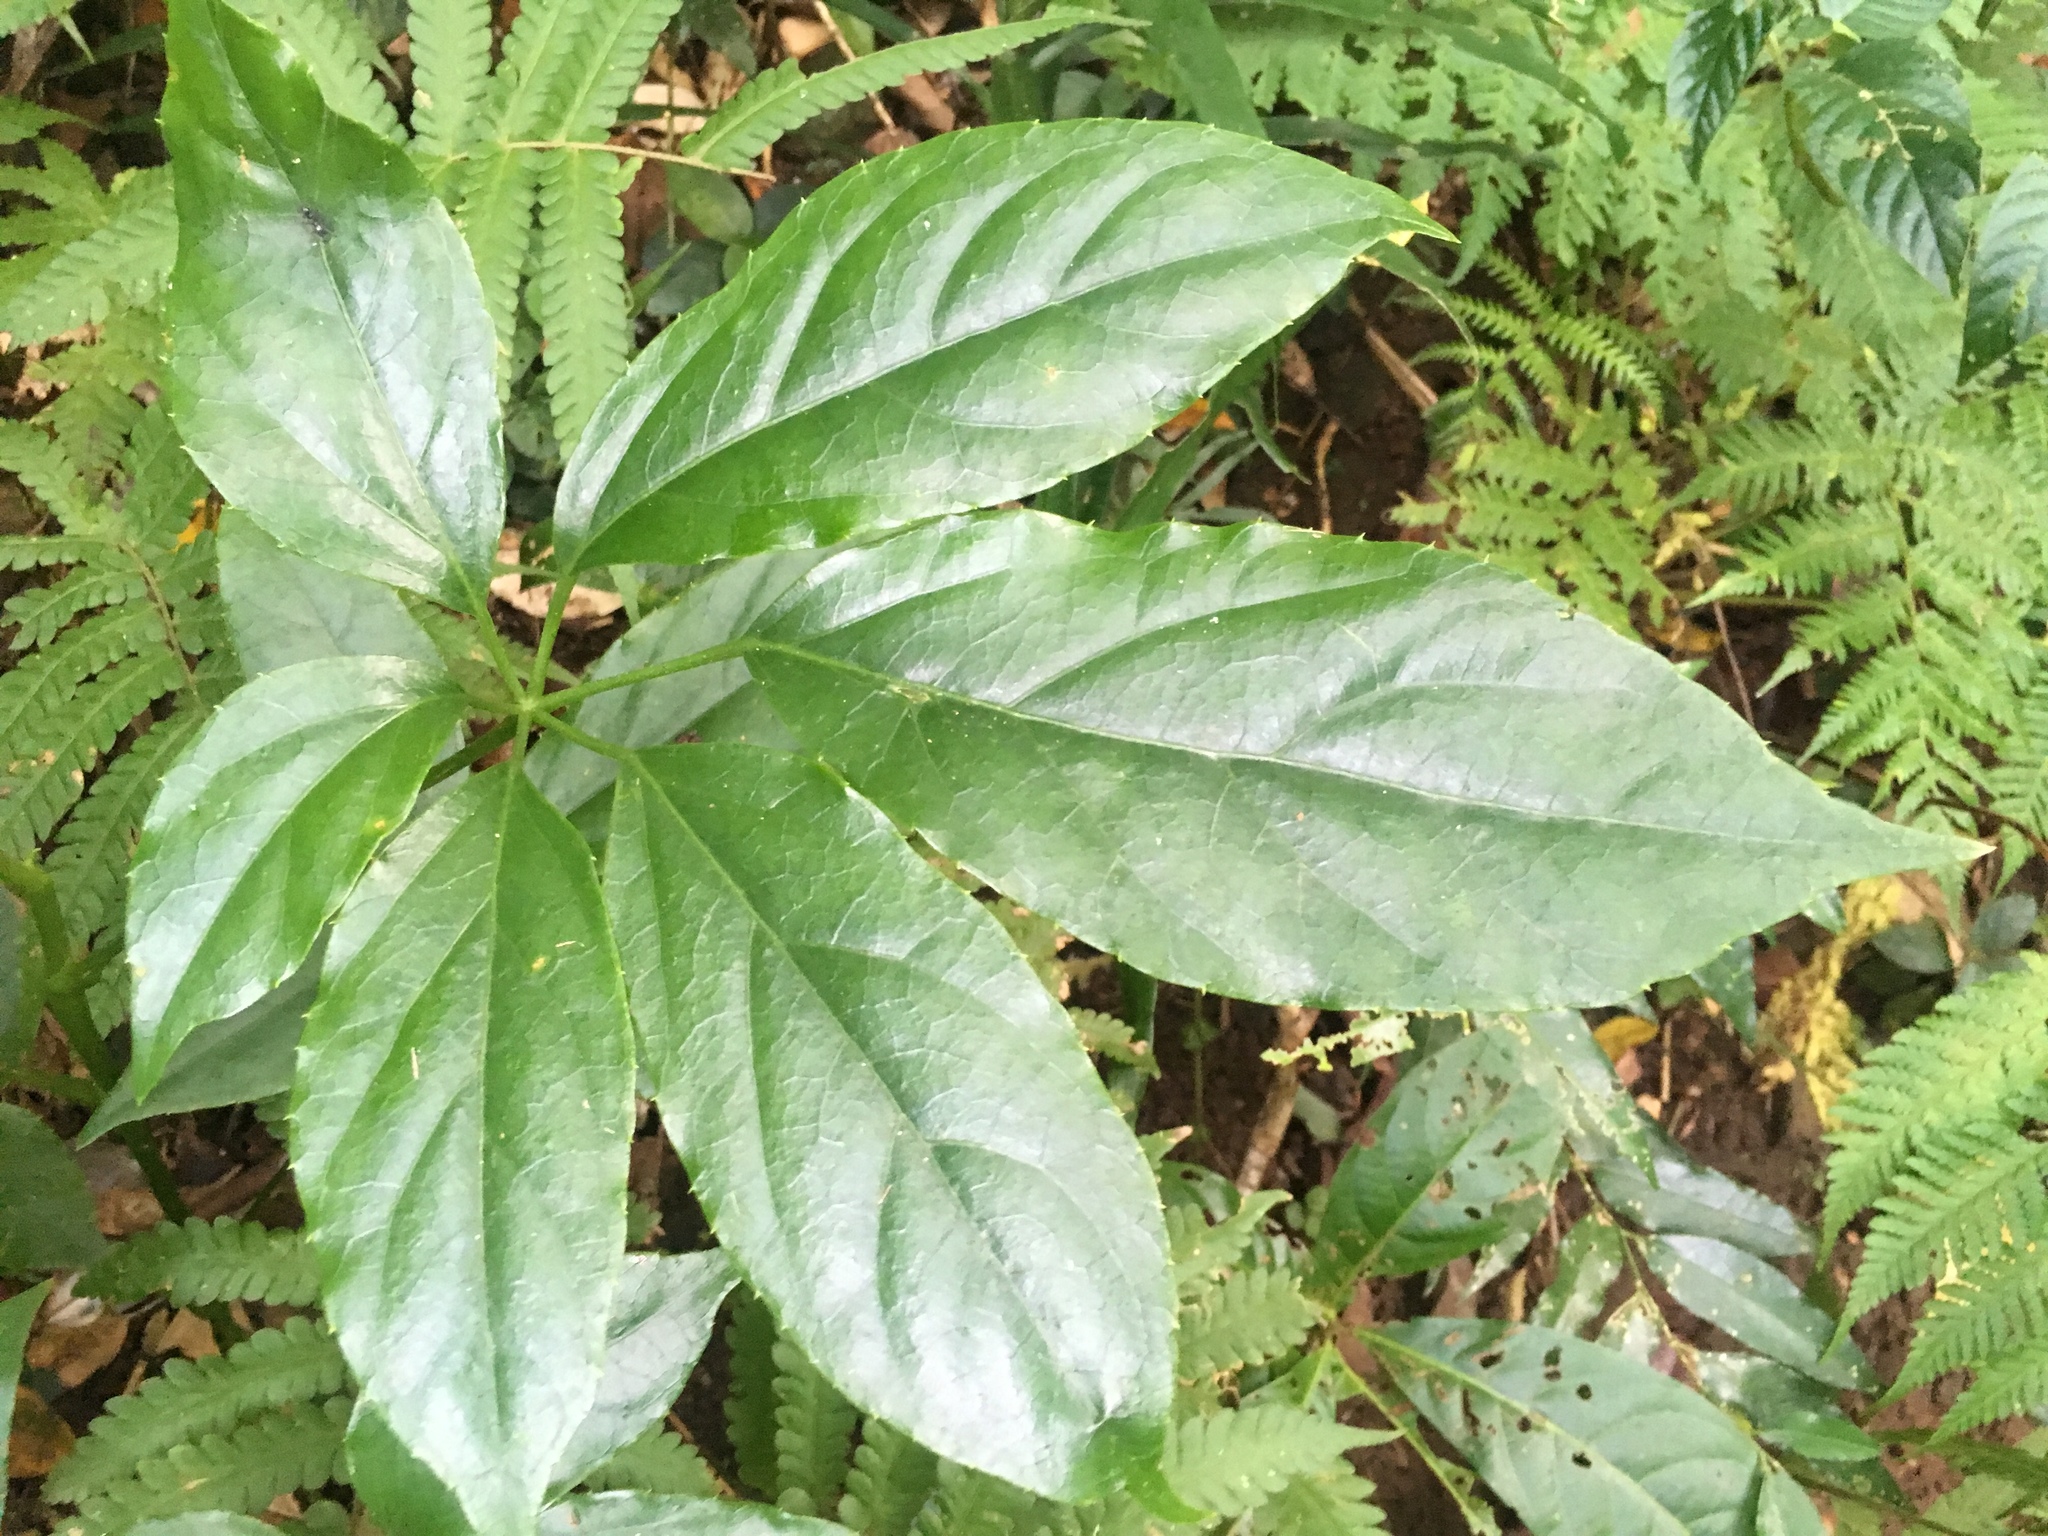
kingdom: Plantae
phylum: Tracheophyta
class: Magnoliopsida
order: Apiales
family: Araliaceae
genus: Heptapleurum
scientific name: Heptapleurum heptaphyllum
